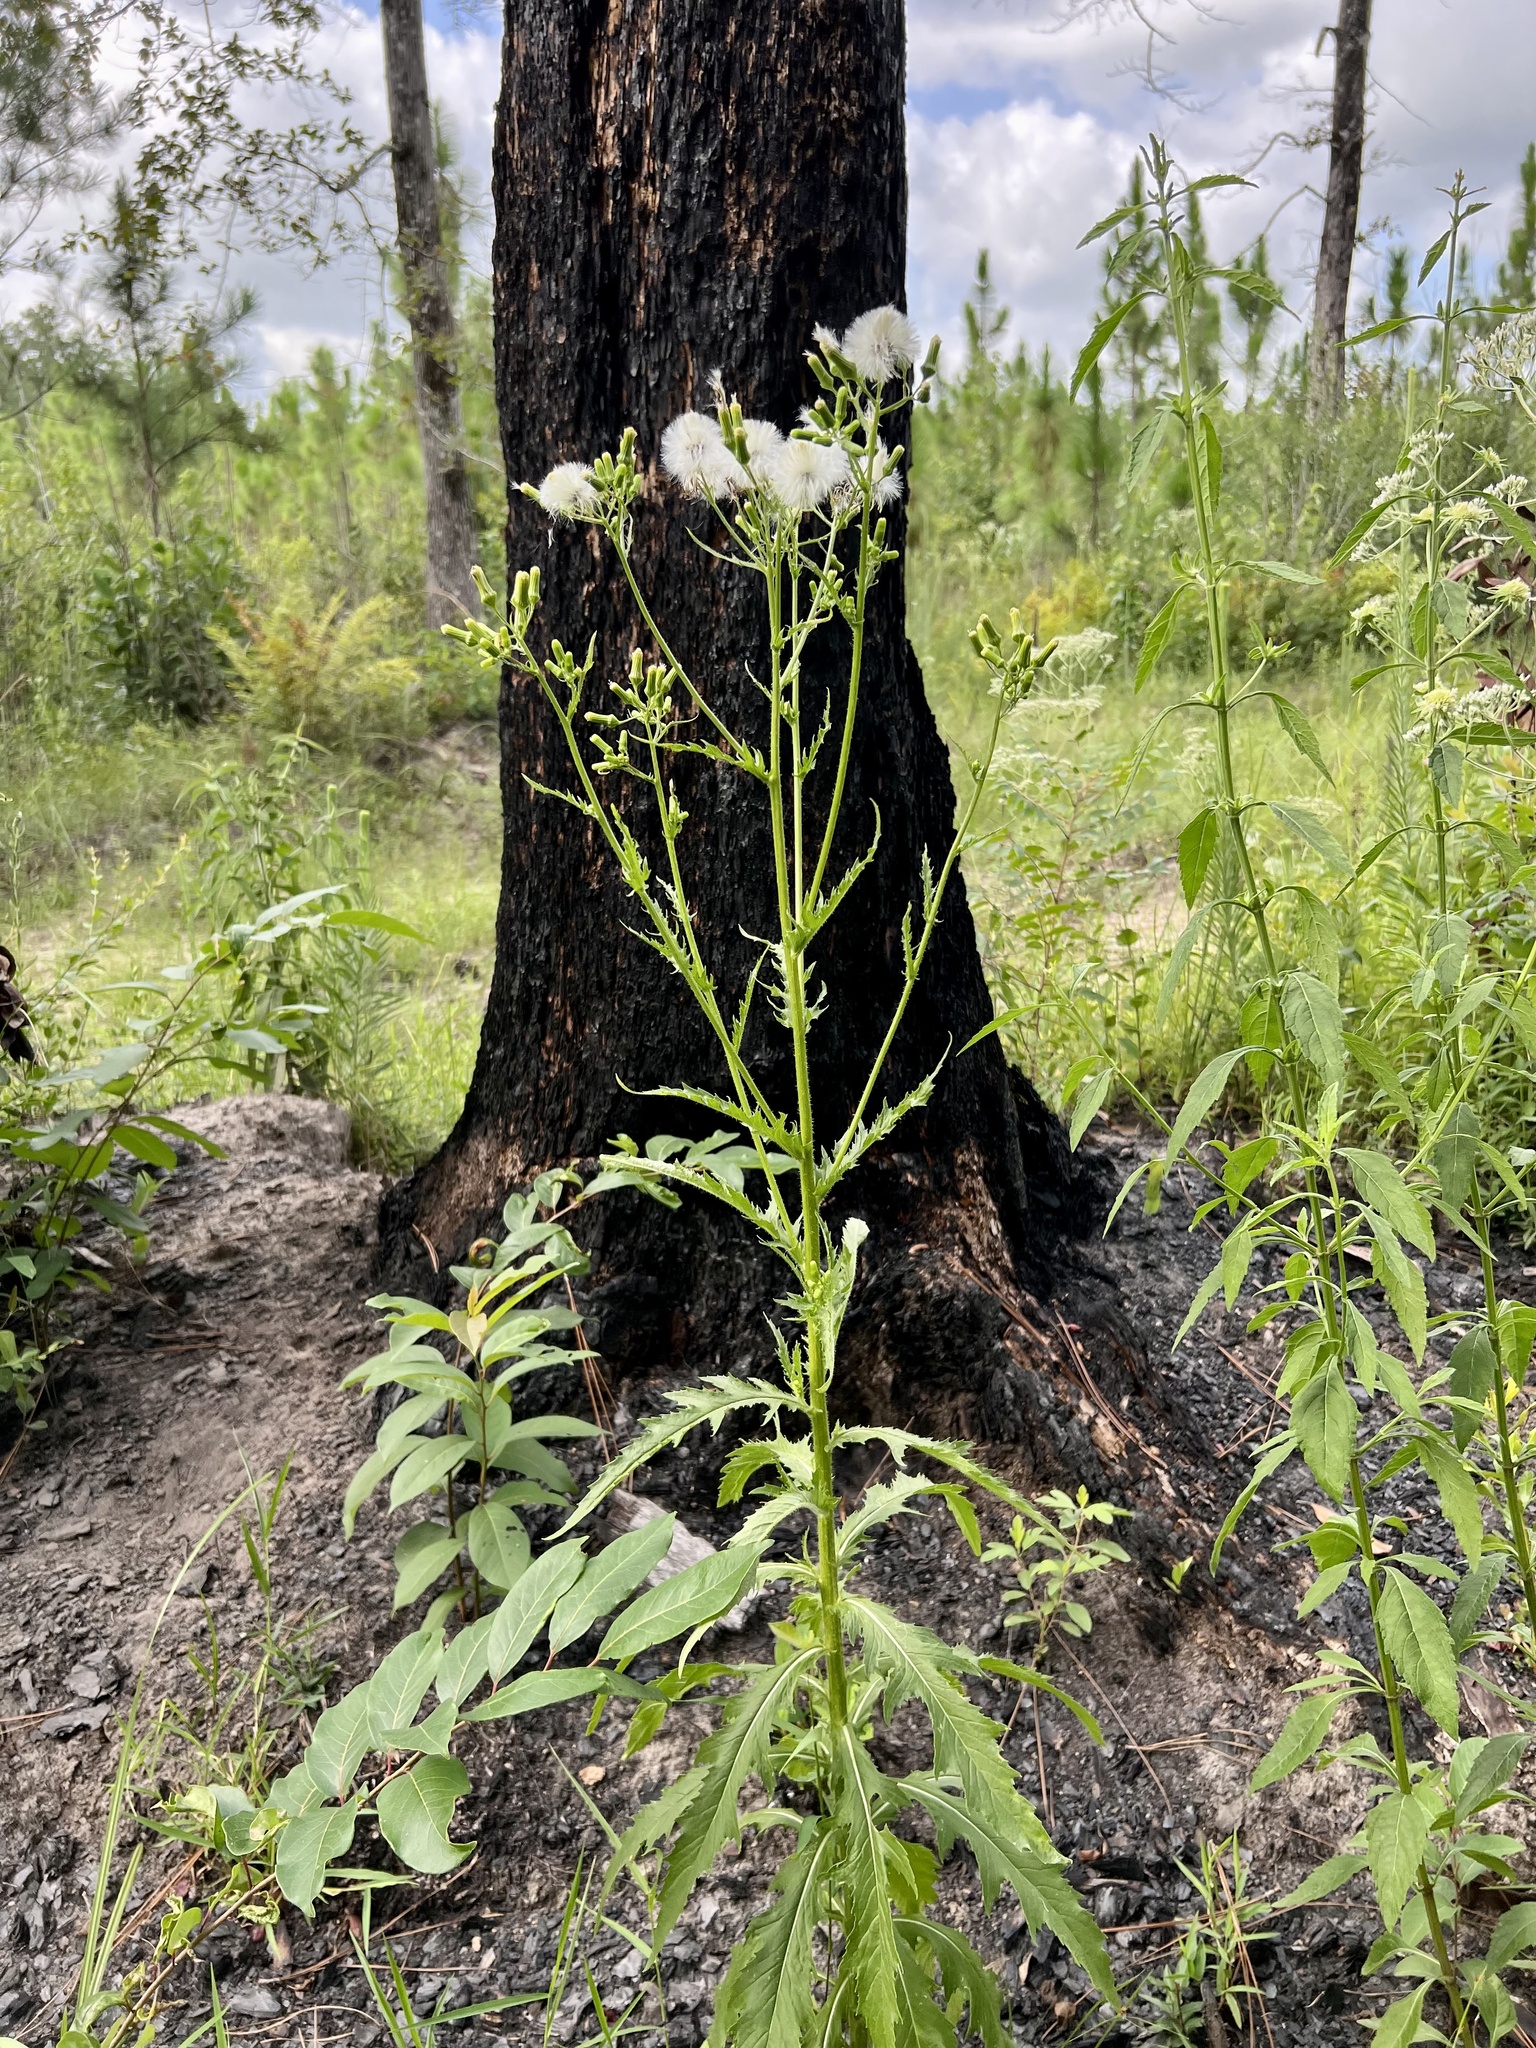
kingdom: Plantae
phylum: Tracheophyta
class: Magnoliopsida
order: Asterales
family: Asteraceae
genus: Erechtites
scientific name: Erechtites hieraciifolius
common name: American burnweed
